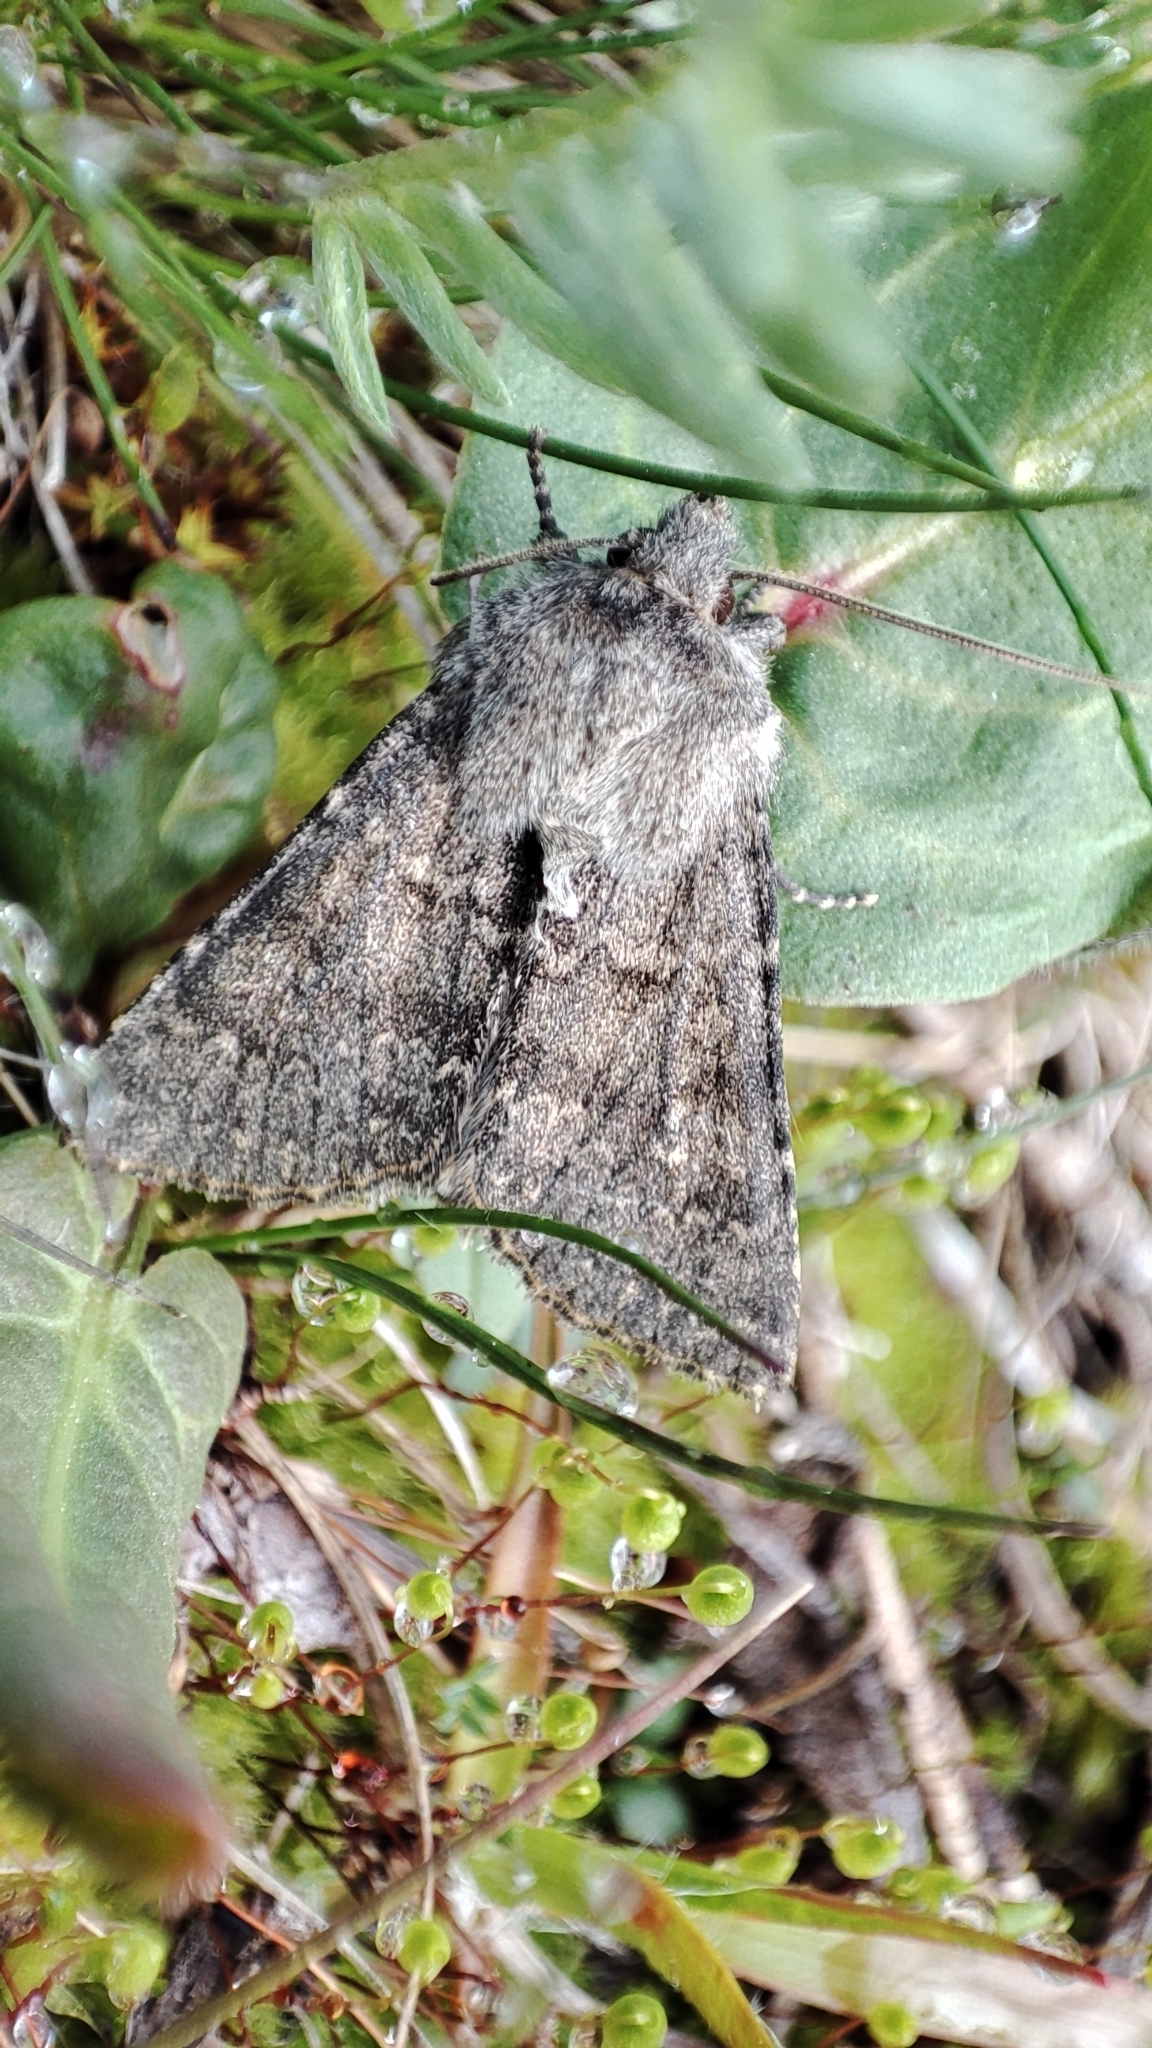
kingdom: Animalia
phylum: Arthropoda
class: Insecta
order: Lepidoptera
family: Noctuidae
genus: Apamea
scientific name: Apamea ingloria
